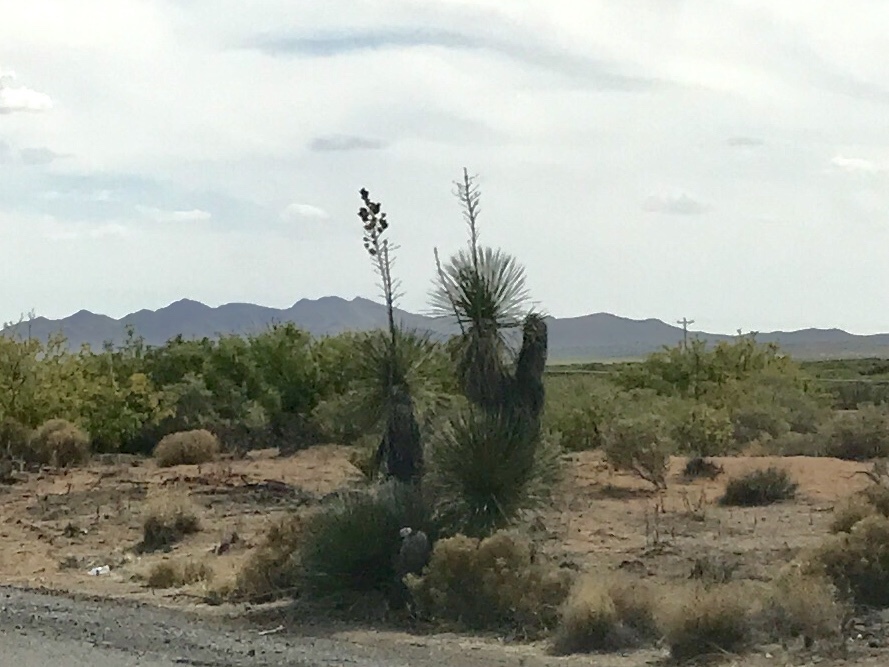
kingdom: Plantae
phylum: Tracheophyta
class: Liliopsida
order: Asparagales
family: Asparagaceae
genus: Yucca
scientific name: Yucca elata
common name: Palmella
